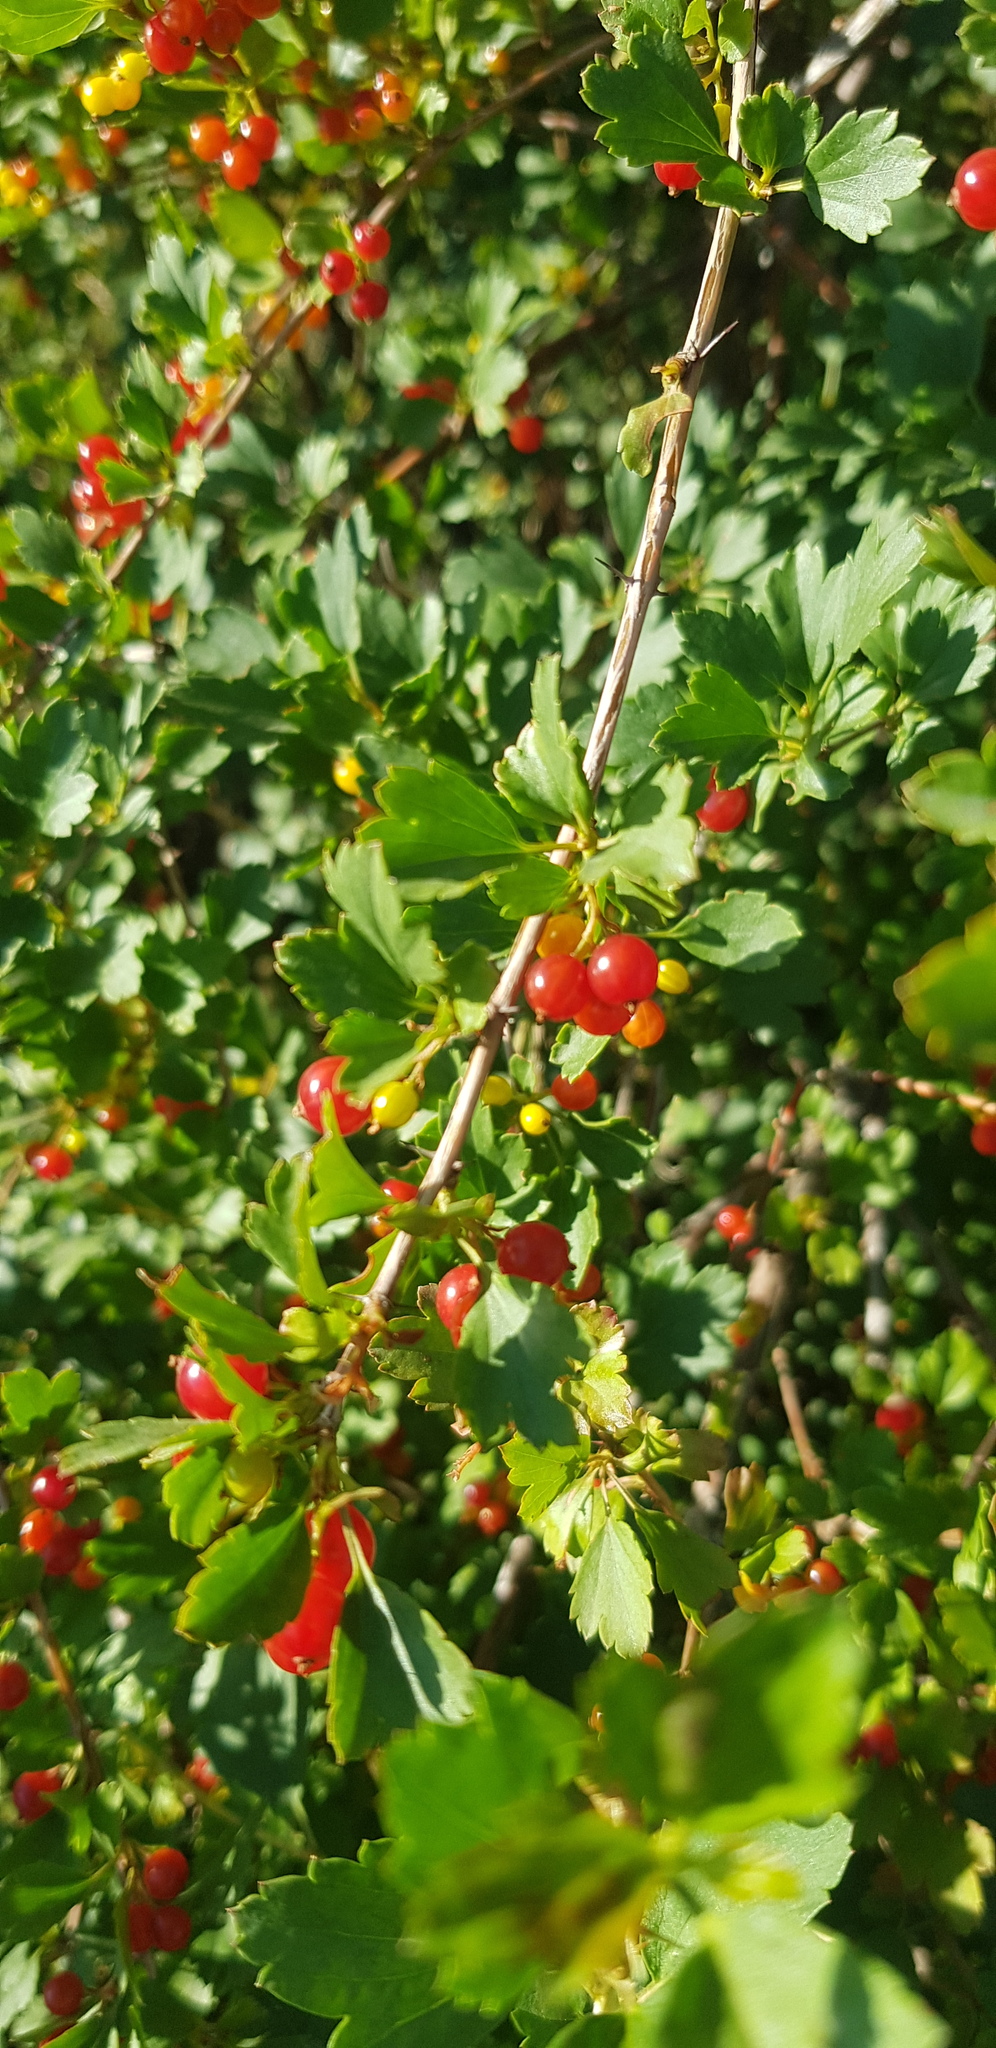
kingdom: Plantae
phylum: Tracheophyta
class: Magnoliopsida
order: Saxifragales
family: Grossulariaceae
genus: Ribes
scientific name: Ribes diacanthum
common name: Siberian currant
